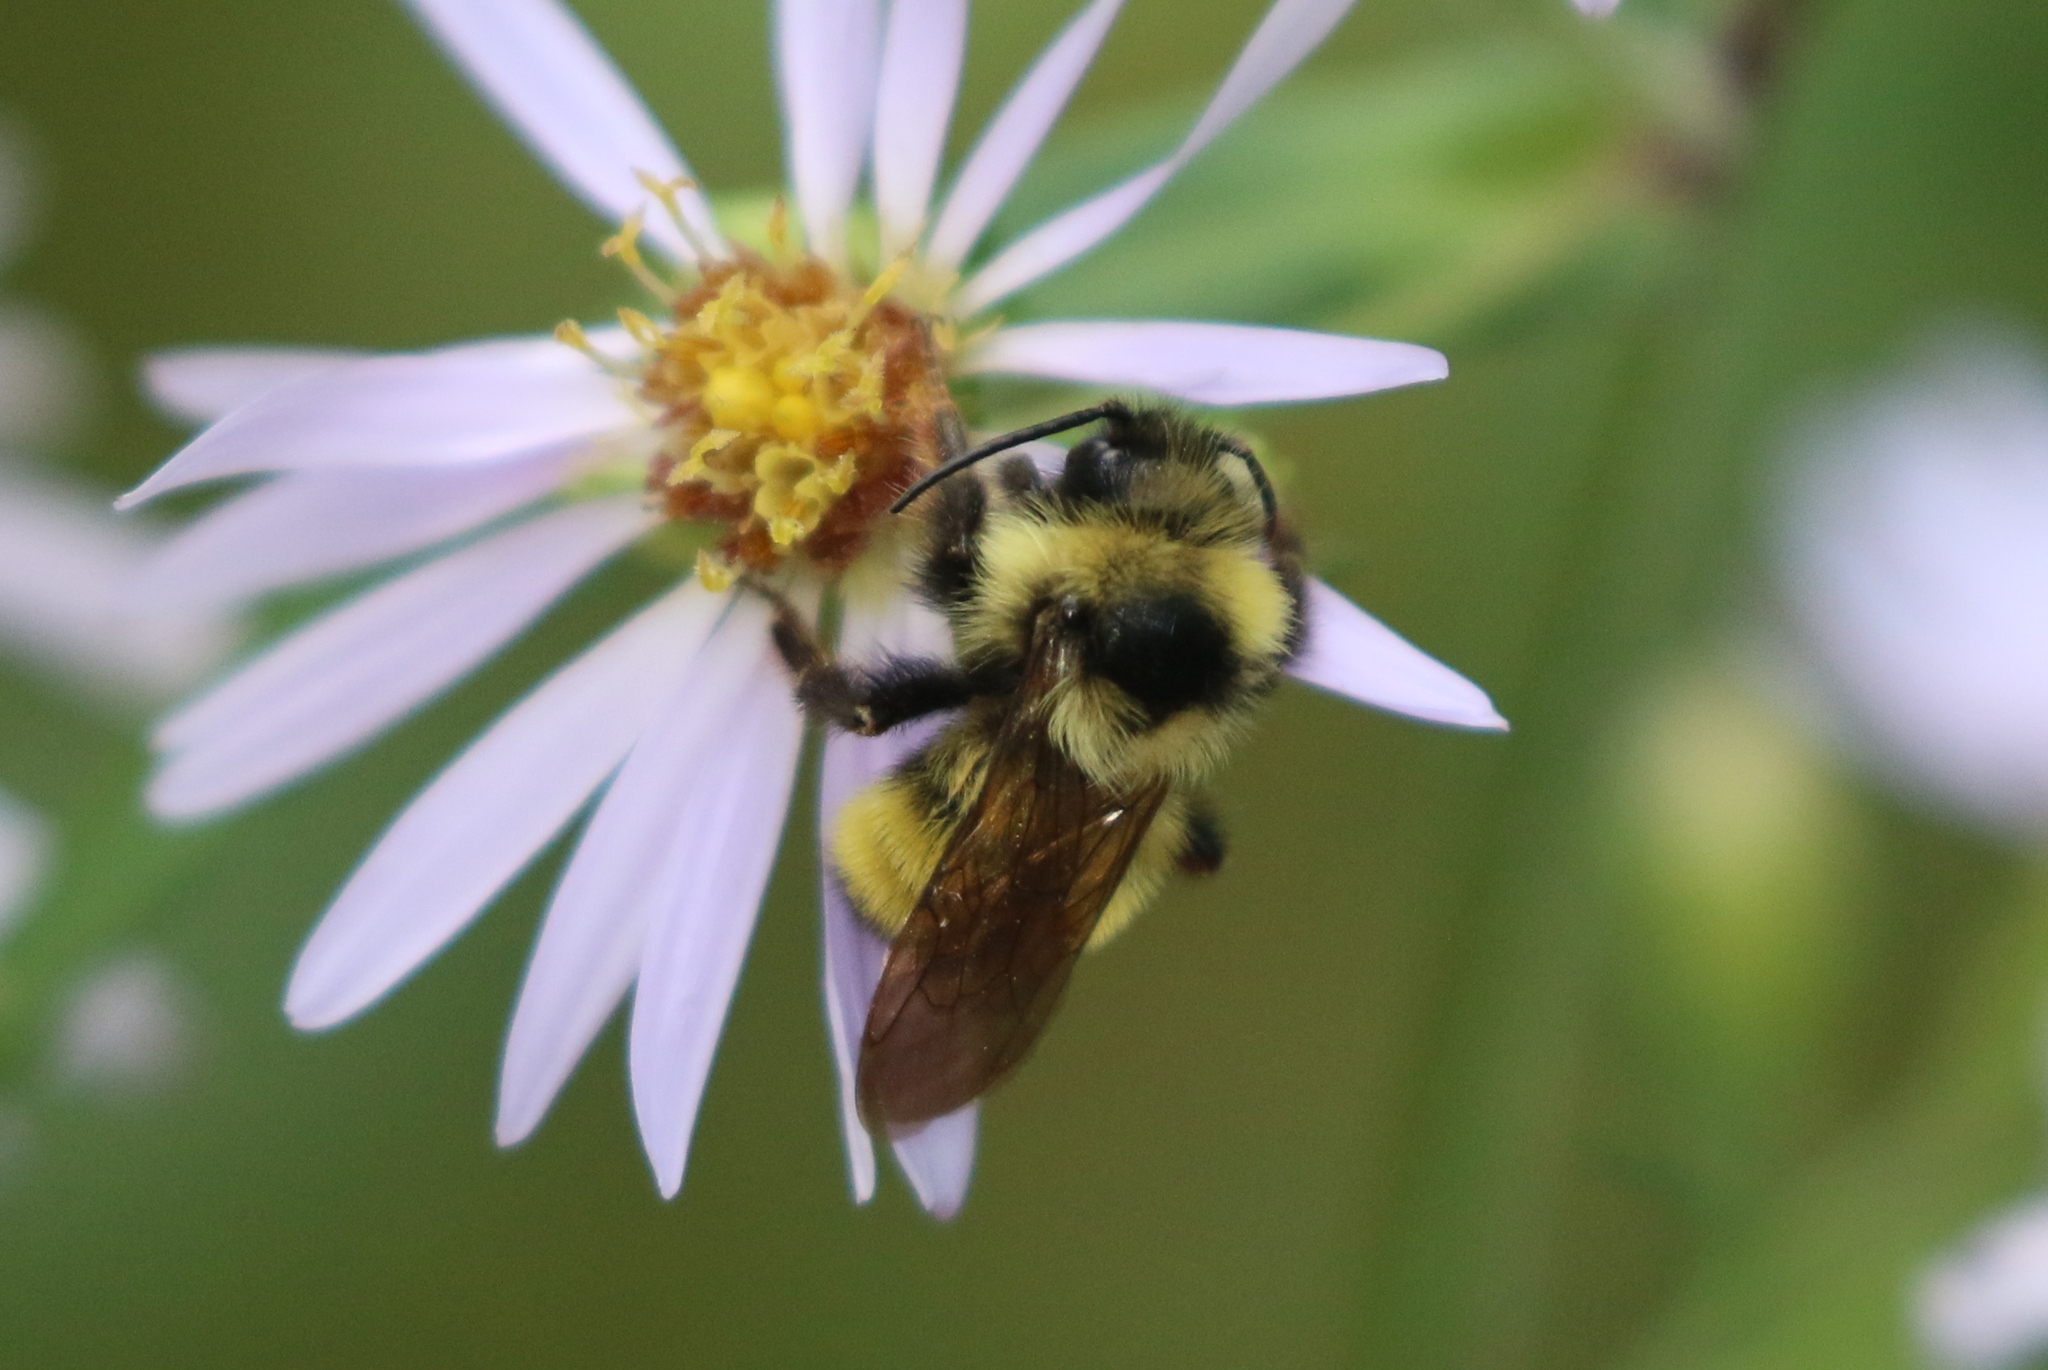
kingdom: Animalia
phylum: Arthropoda
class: Insecta
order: Hymenoptera
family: Apidae
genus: Bombus
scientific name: Bombus flavidus
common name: Fernald cuckoo bumble bee
